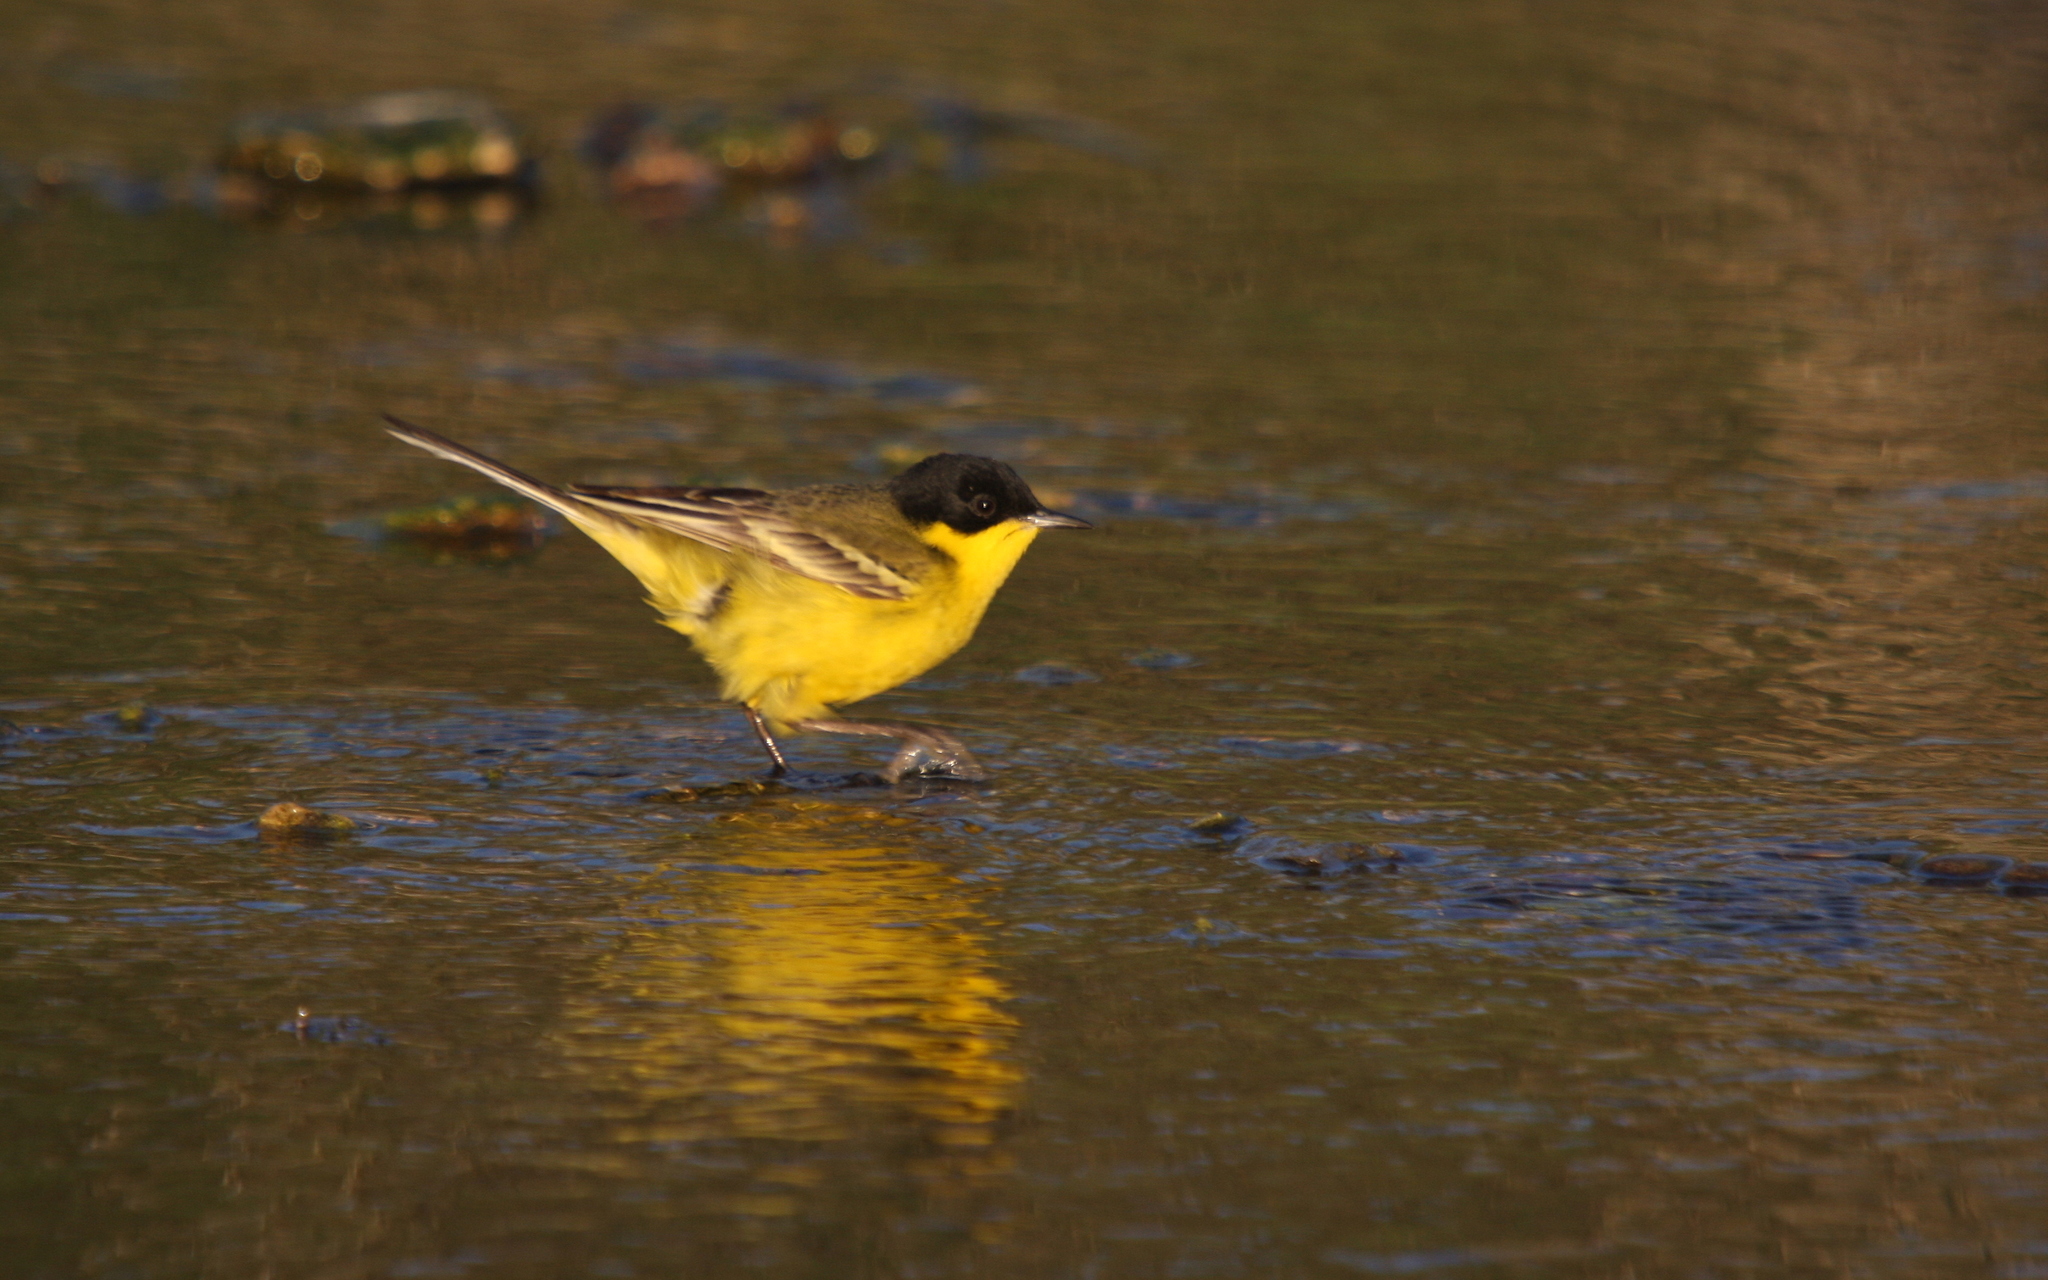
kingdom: Animalia
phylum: Chordata
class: Aves
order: Passeriformes
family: Motacillidae
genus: Motacilla
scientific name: Motacilla flava
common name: Western yellow wagtail
